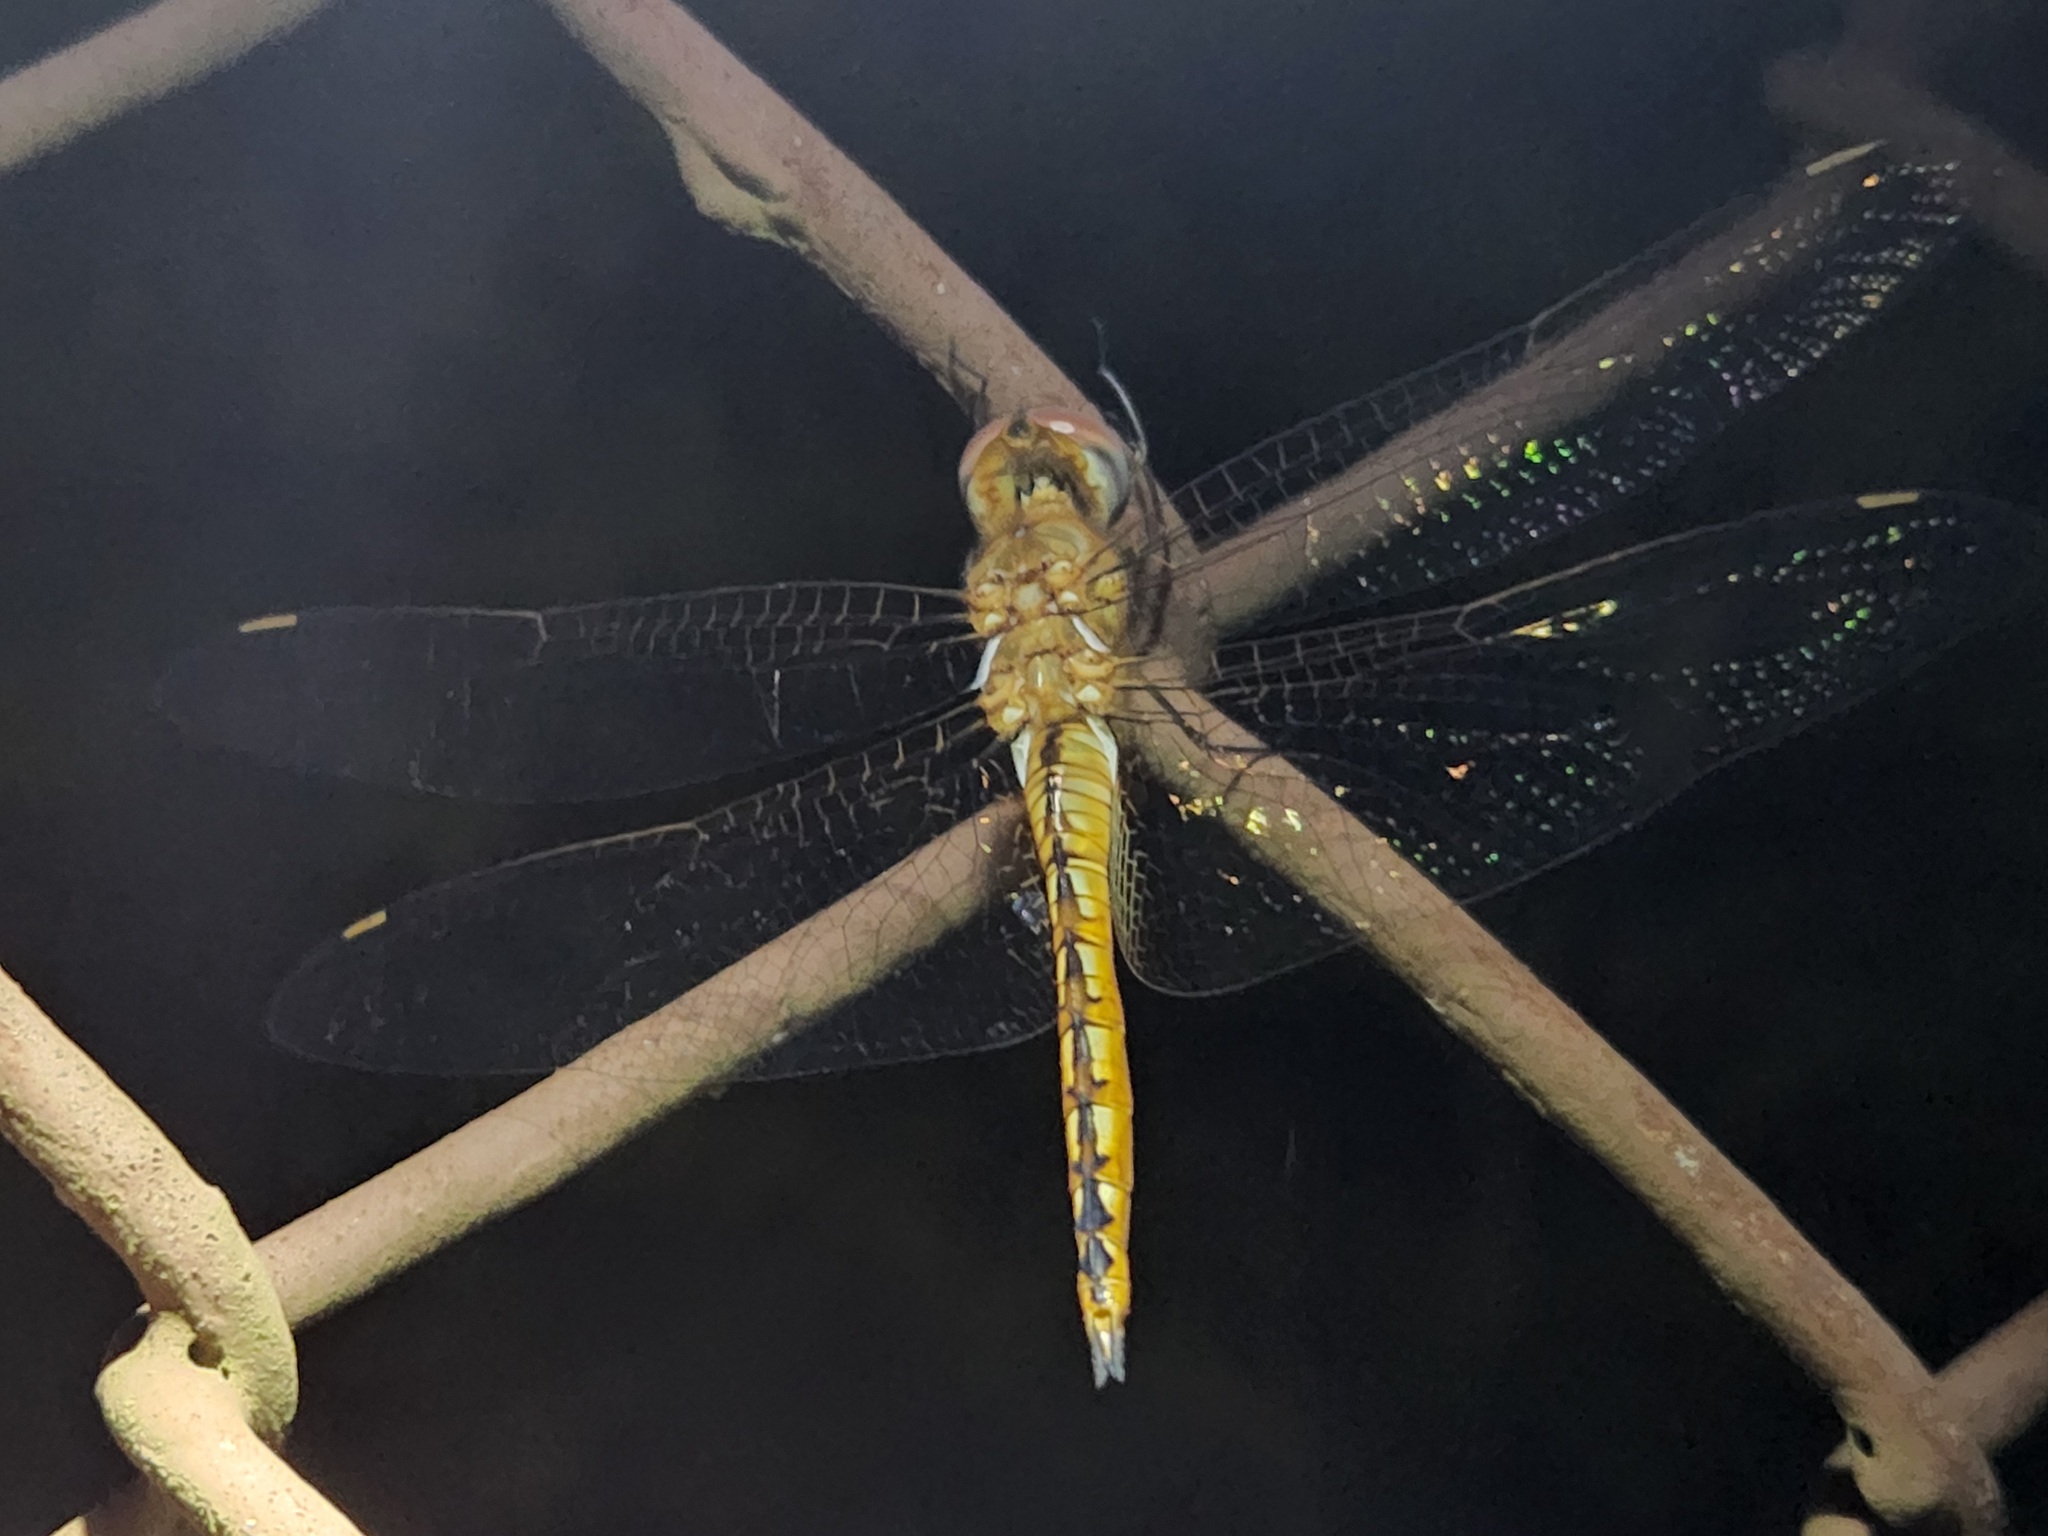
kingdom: Animalia
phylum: Arthropoda
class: Insecta
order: Odonata
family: Libellulidae
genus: Pantala
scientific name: Pantala flavescens
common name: Wandering glider
